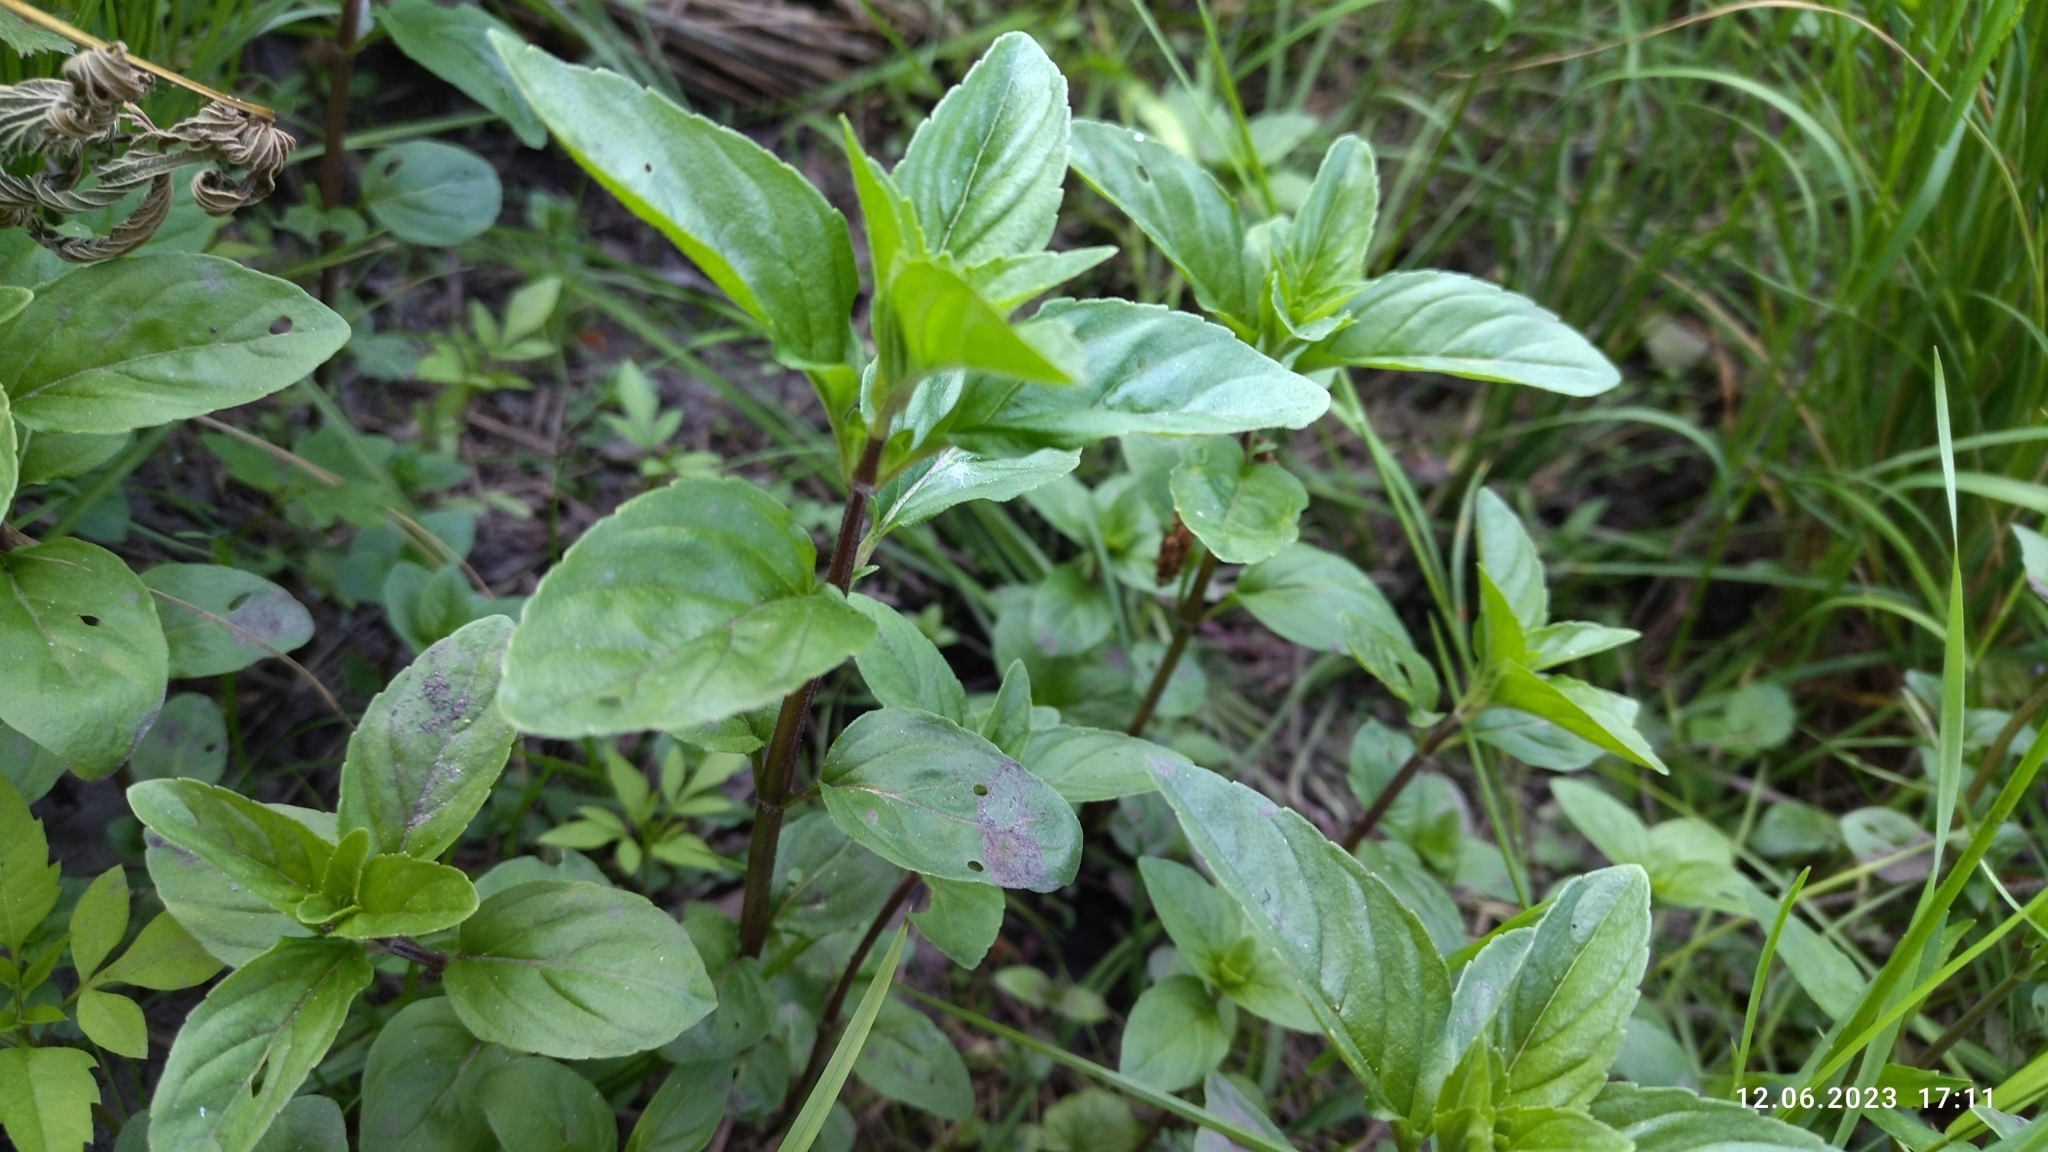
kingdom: Plantae
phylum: Tracheophyta
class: Magnoliopsida
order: Lamiales
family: Lamiaceae
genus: Mentha
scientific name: Mentha arvensis
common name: Corn mint
